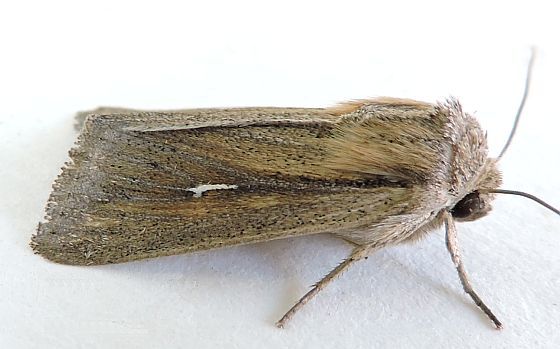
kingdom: Animalia
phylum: Arthropoda
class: Insecta
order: Lepidoptera
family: Noctuidae
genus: Leucania
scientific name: Leucania imperfecta
